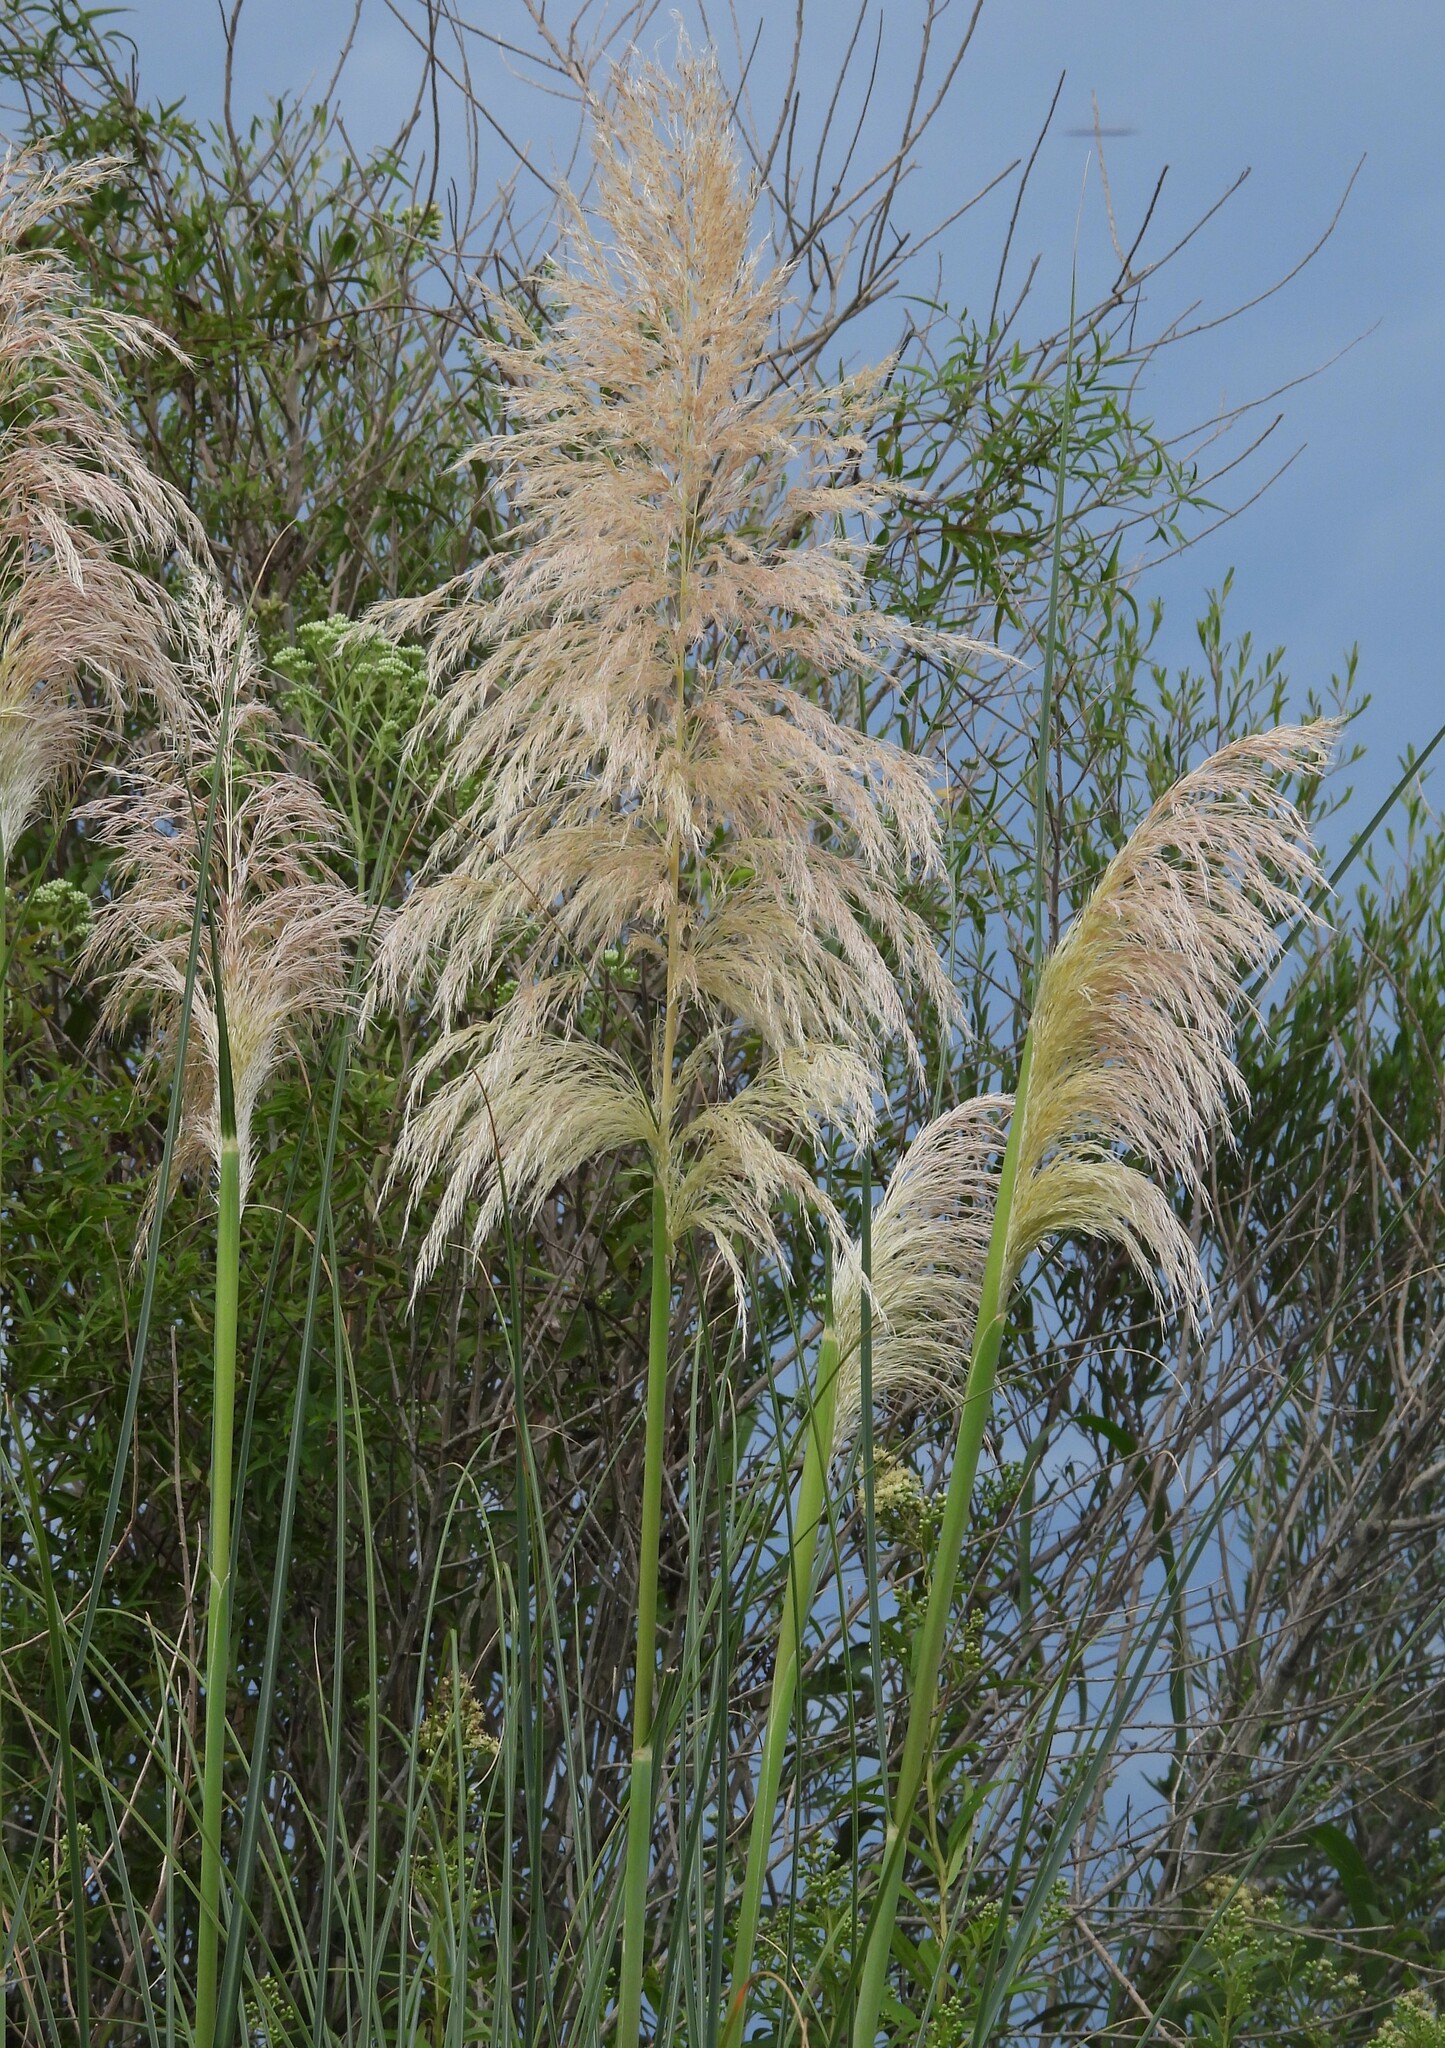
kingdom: Plantae
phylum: Tracheophyta
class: Liliopsida
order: Poales
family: Poaceae
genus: Cortaderia
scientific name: Cortaderia selloana
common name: Uruguayan pampas grass
